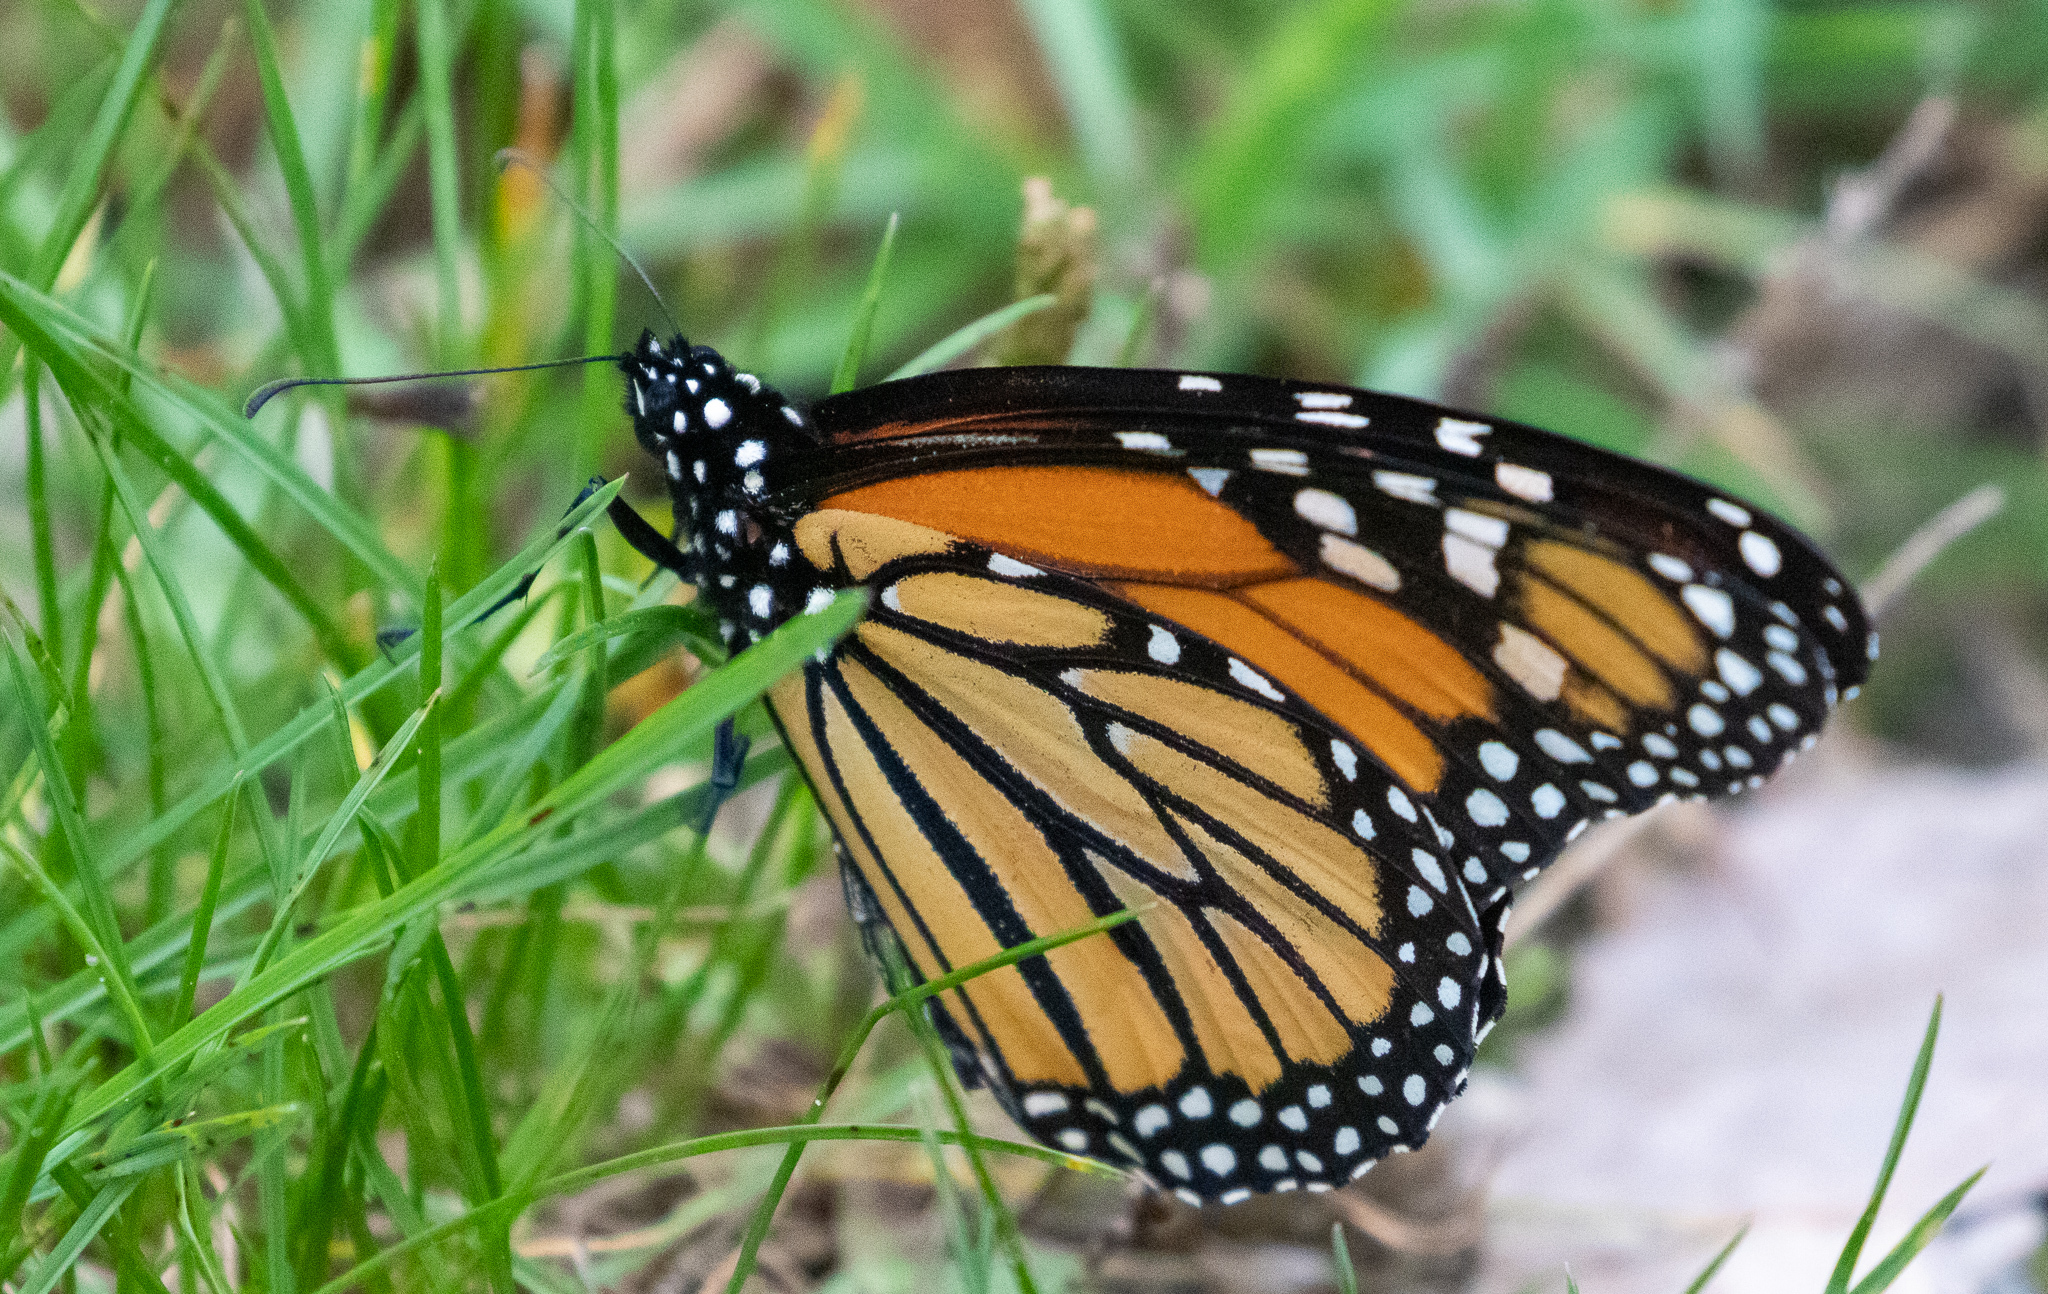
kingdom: Animalia
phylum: Arthropoda
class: Insecta
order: Lepidoptera
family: Nymphalidae
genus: Danaus
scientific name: Danaus plexippus
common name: Monarch
